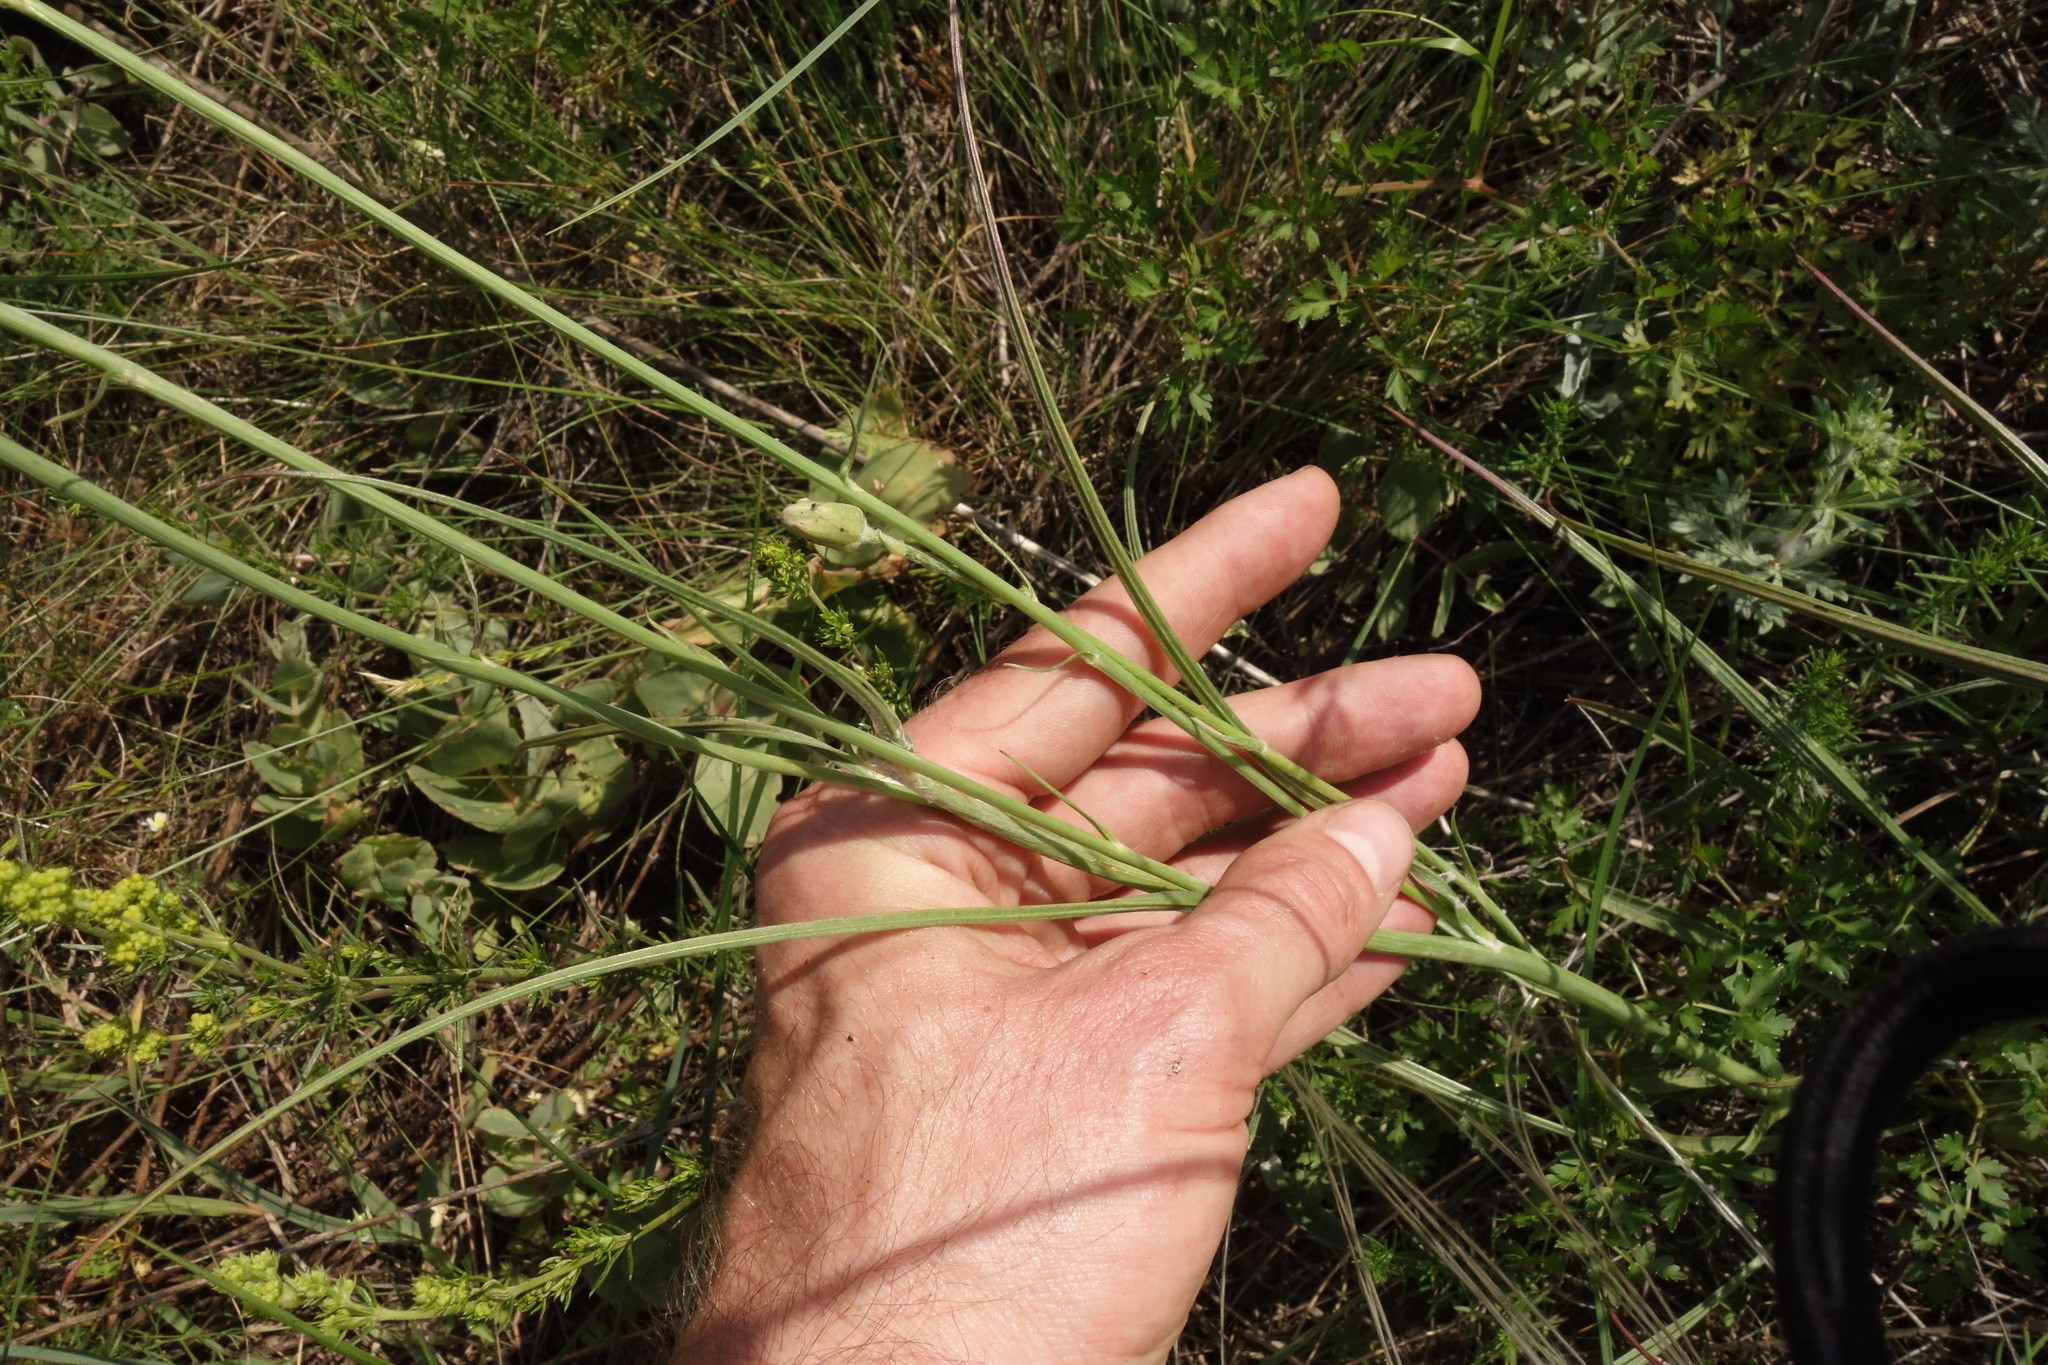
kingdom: Plantae
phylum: Tracheophyta
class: Magnoliopsida
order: Asterales
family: Asteraceae
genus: Scorzonera
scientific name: Scorzonera purpurea
